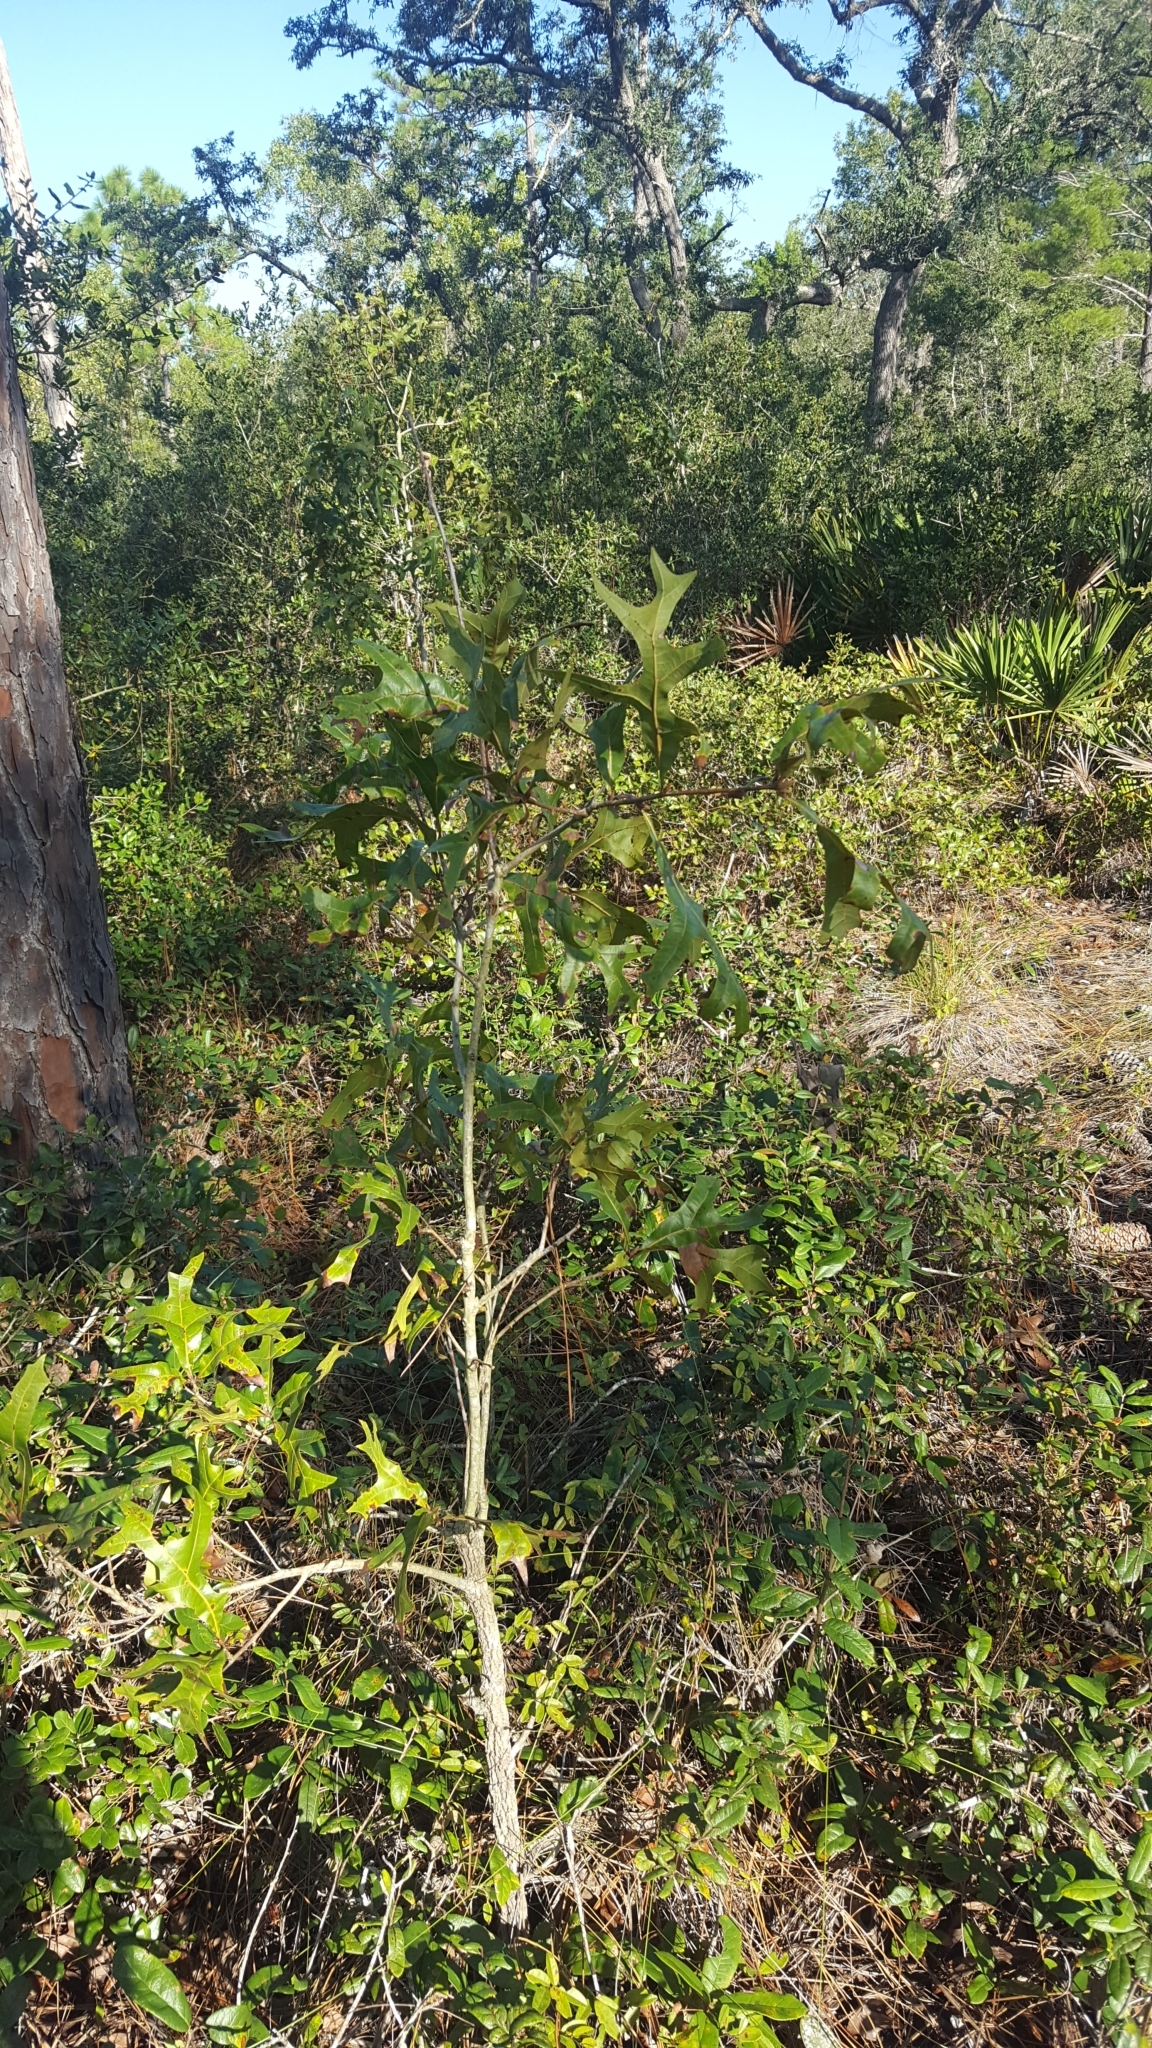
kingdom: Plantae
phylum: Tracheophyta
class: Magnoliopsida
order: Fagales
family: Fagaceae
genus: Quercus
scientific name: Quercus laevis
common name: Turkey oak
